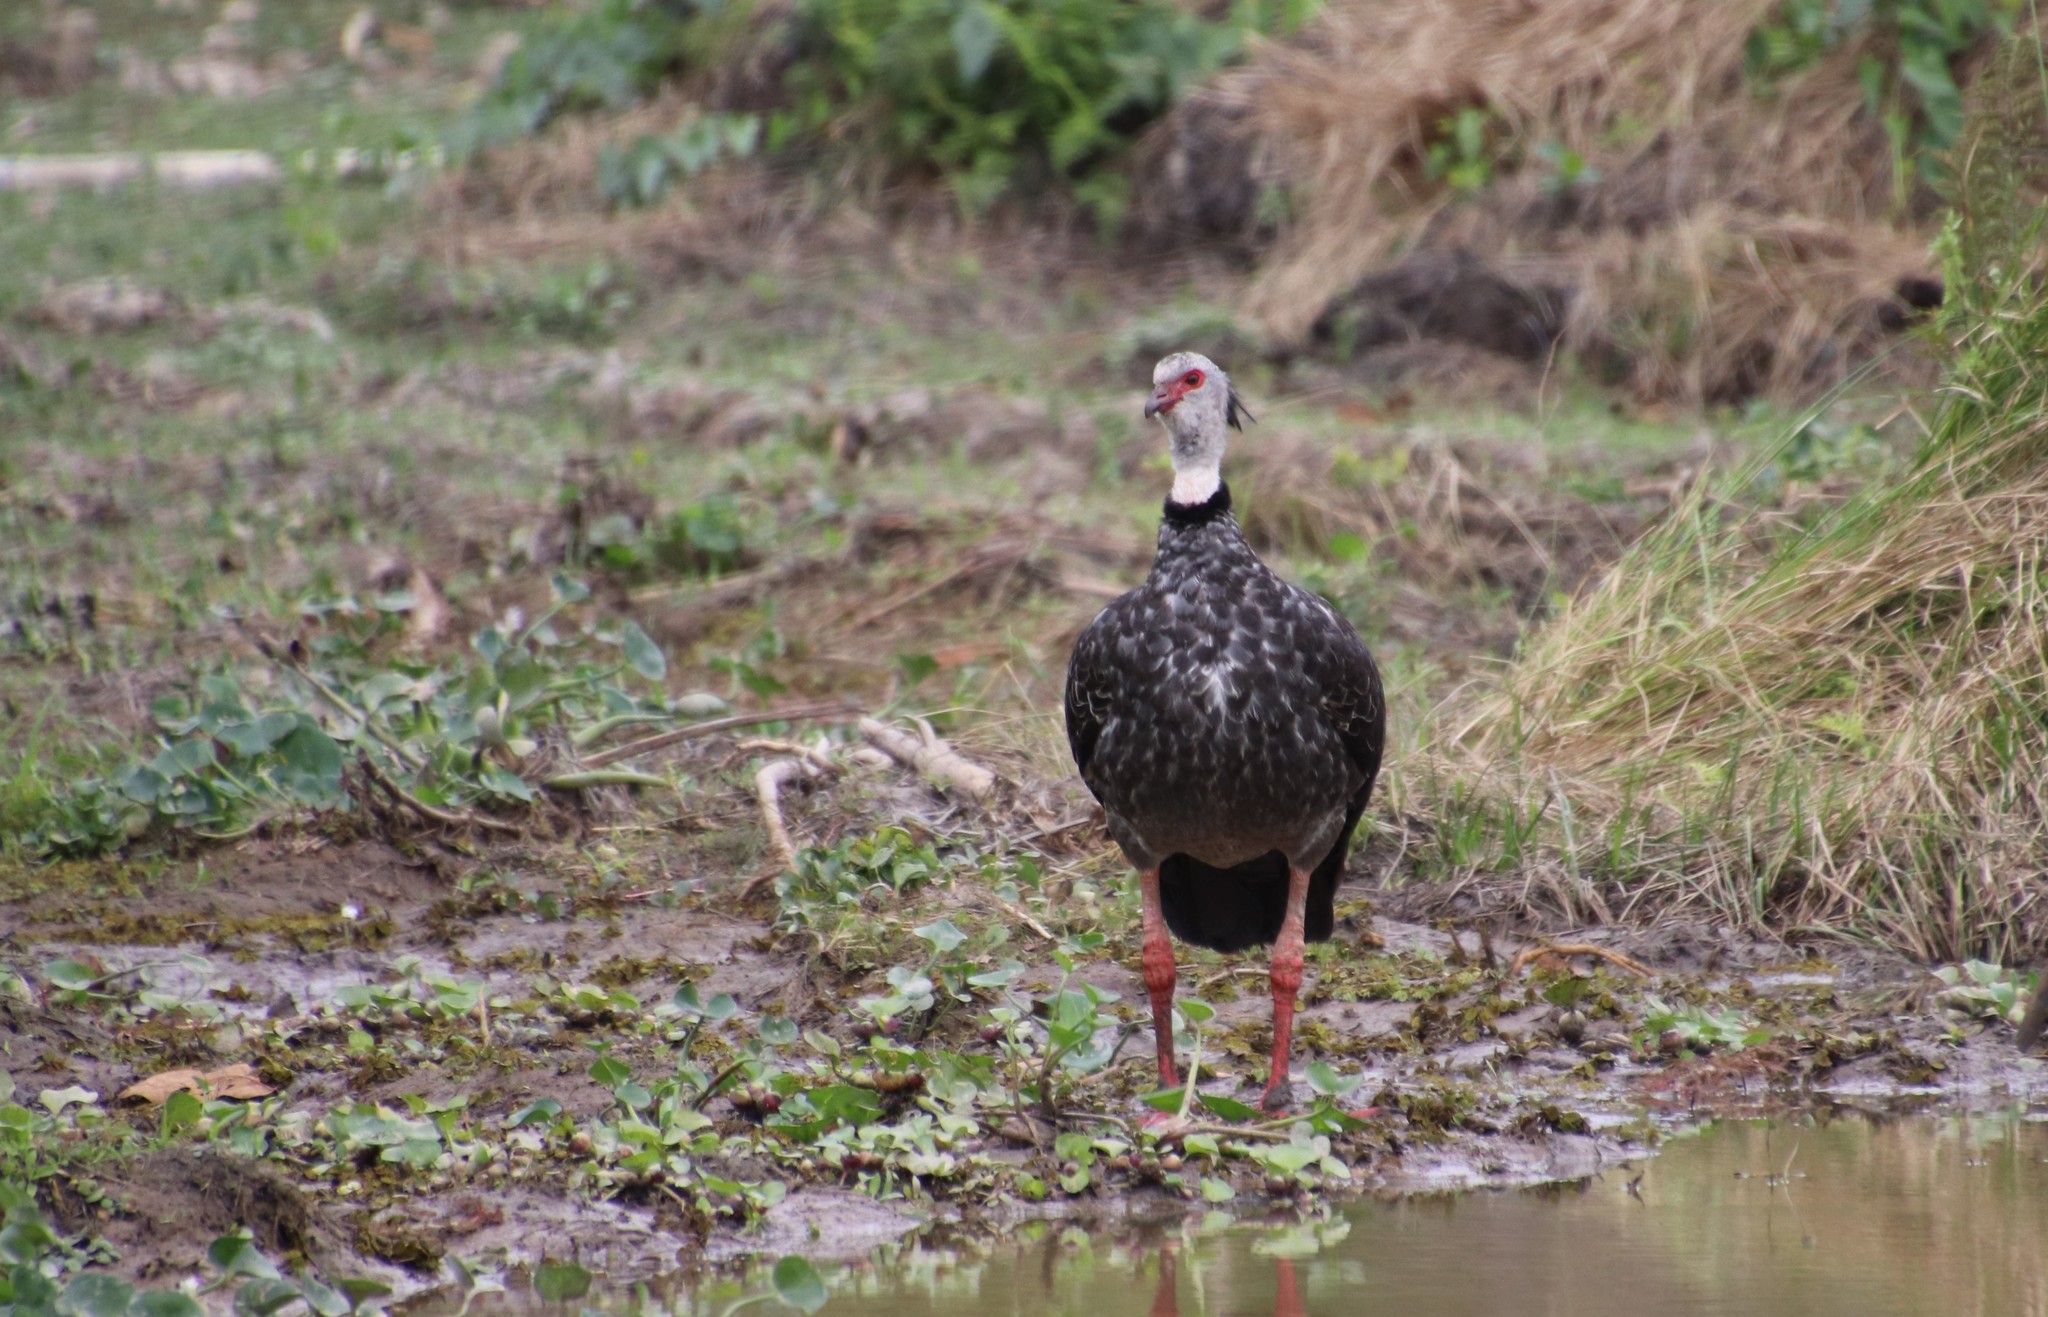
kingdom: Animalia
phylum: Chordata
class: Aves
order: Anseriformes
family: Anhimidae
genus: Chauna
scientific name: Chauna torquata
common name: Southern screamer
